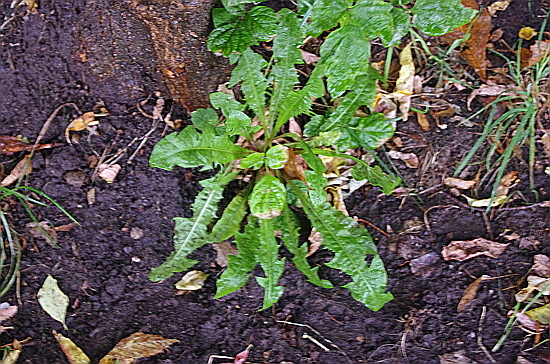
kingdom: Plantae
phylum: Tracheophyta
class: Magnoliopsida
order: Asterales
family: Asteraceae
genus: Taraxacum
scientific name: Taraxacum officinale
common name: Common dandelion
